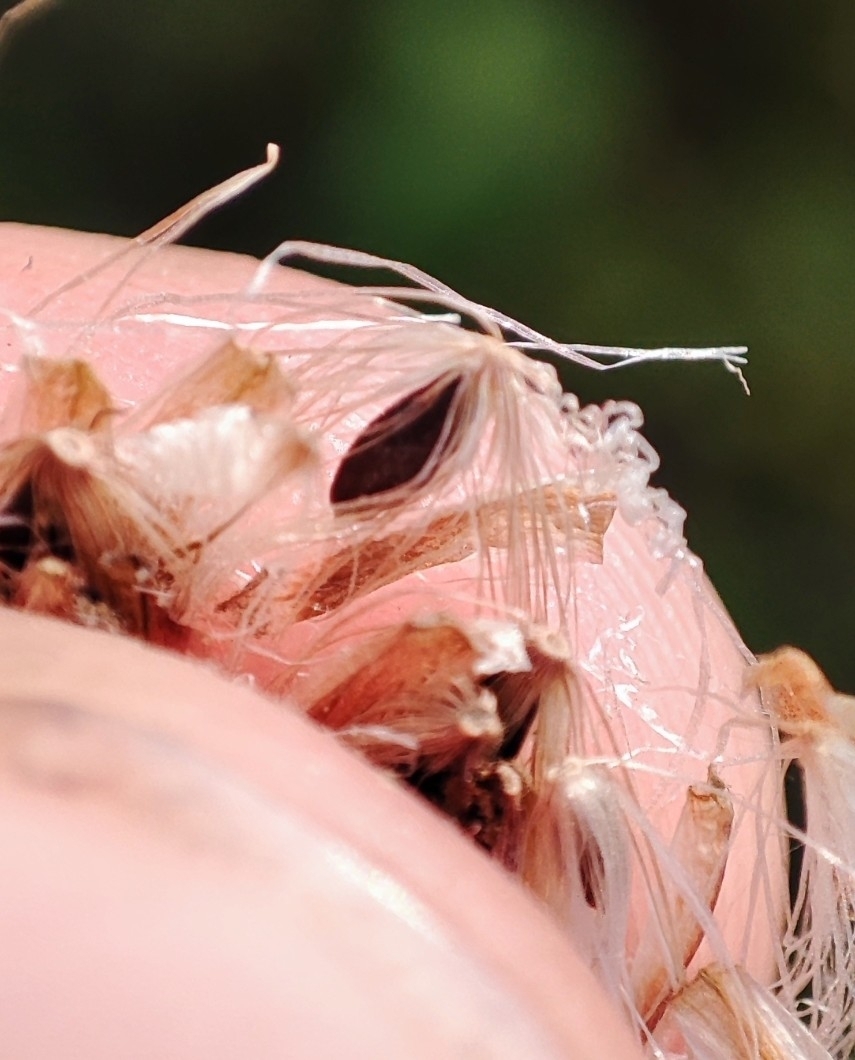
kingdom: Plantae
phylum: Tracheophyta
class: Liliopsida
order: Poales
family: Cyperaceae
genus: Eriophorum
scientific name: Eriophorum angustifolium
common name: Common cottongrass
